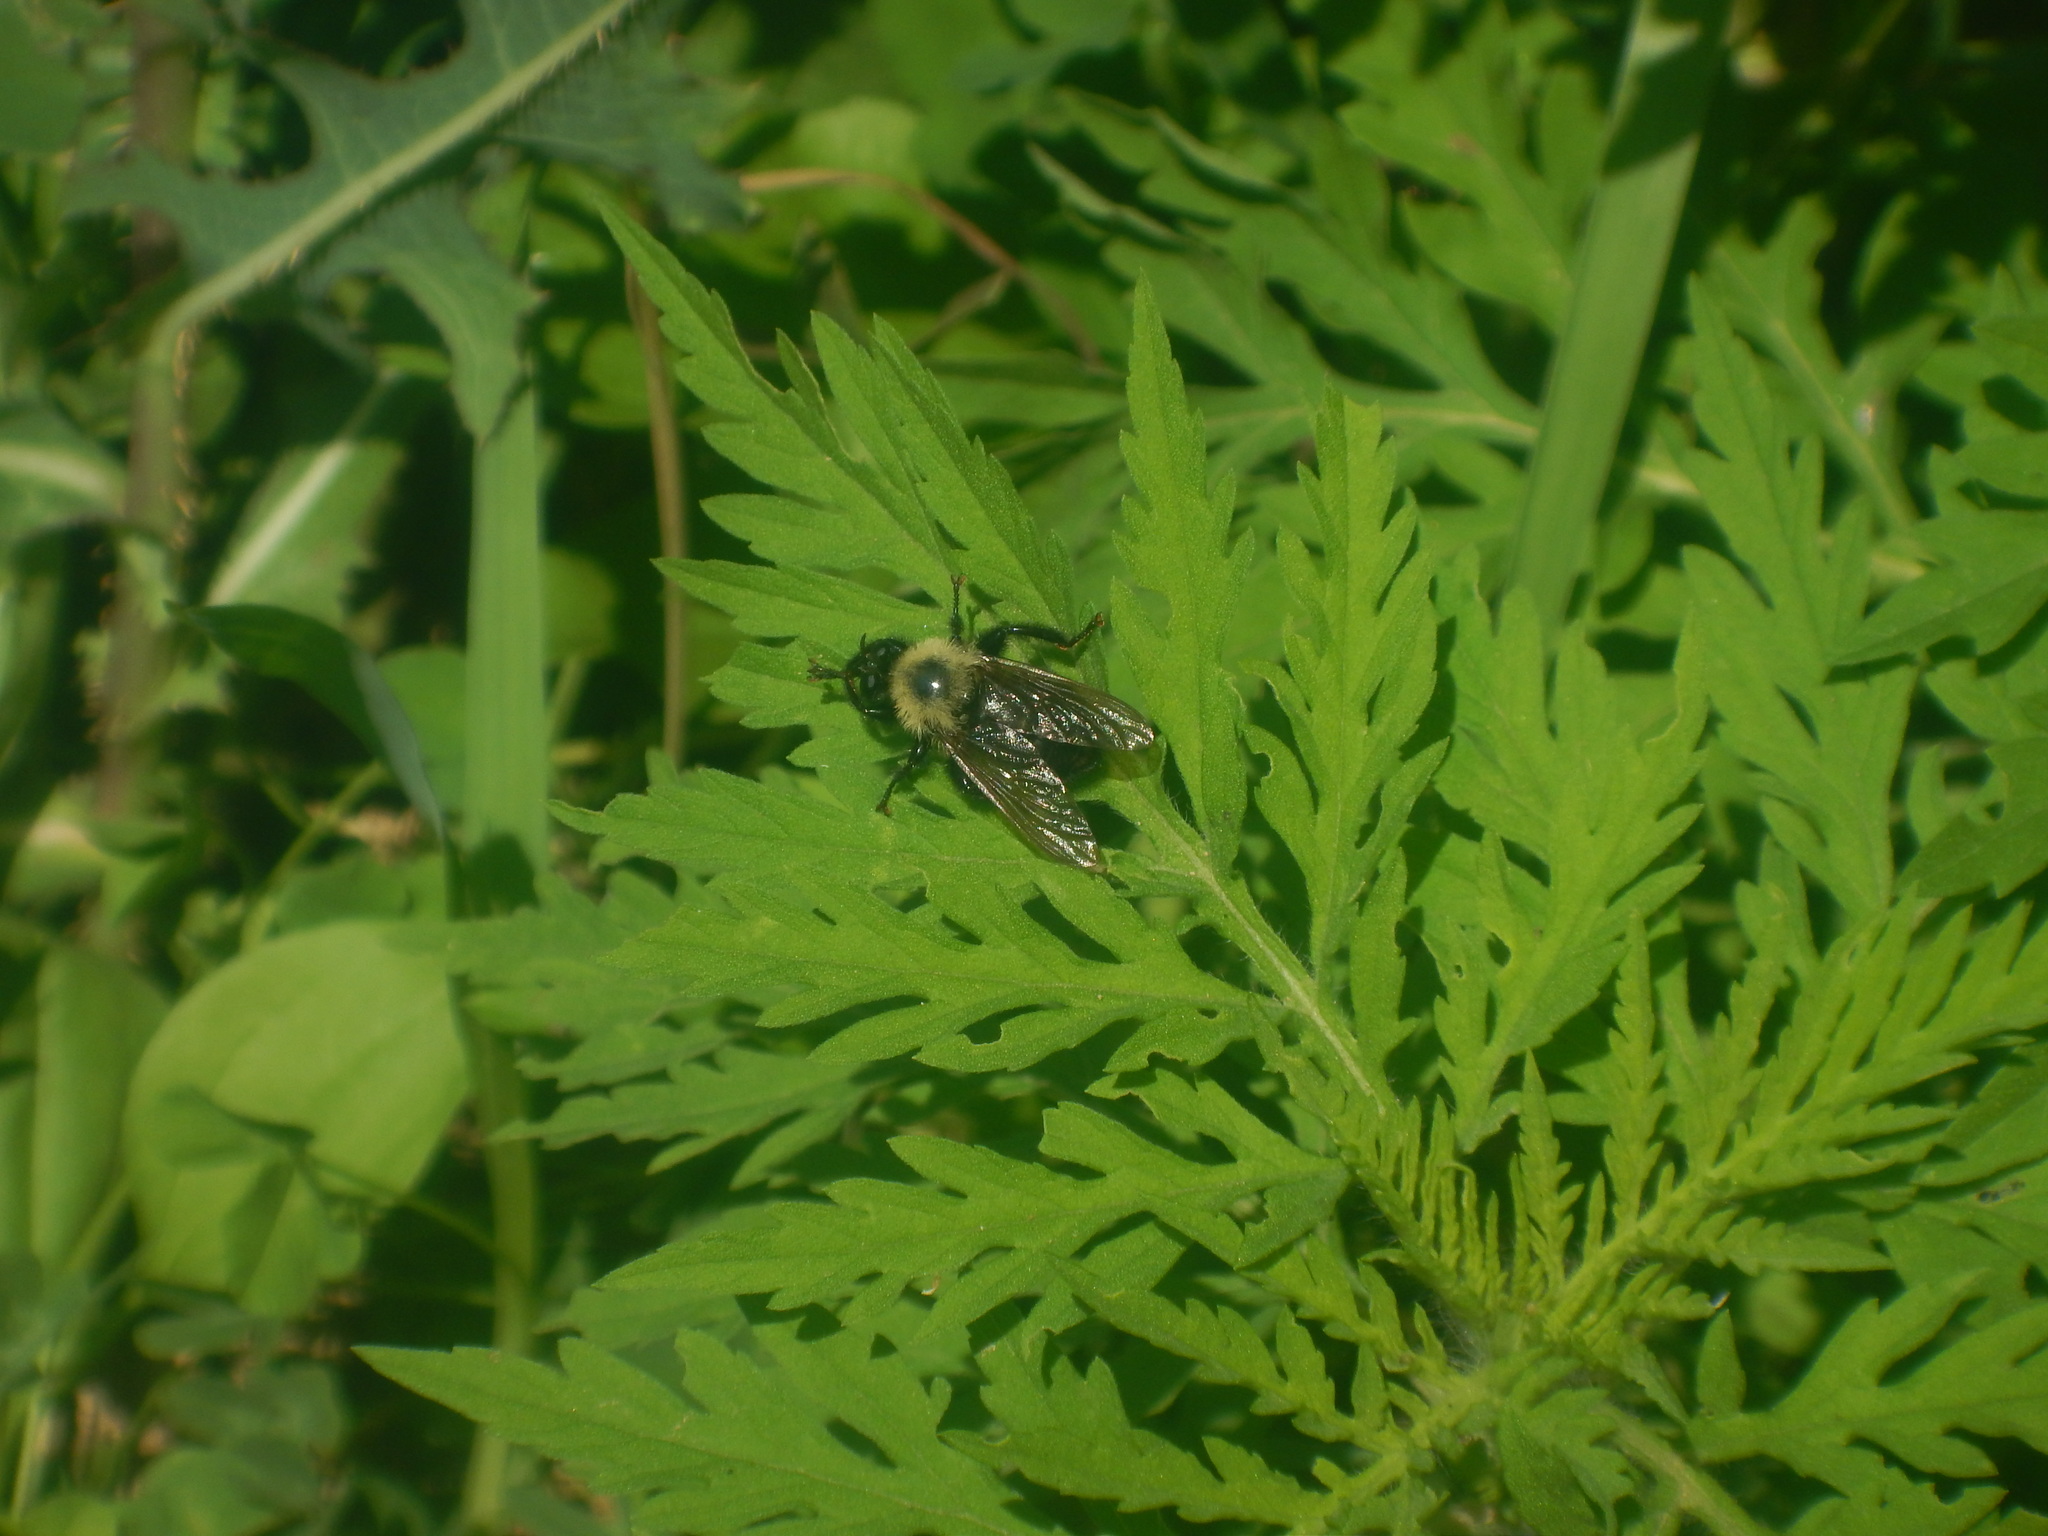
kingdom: Animalia
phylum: Arthropoda
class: Insecta
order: Diptera
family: Asilidae
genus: Laphria
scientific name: Laphria thoracica
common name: Bumble bee mimic robber fly
